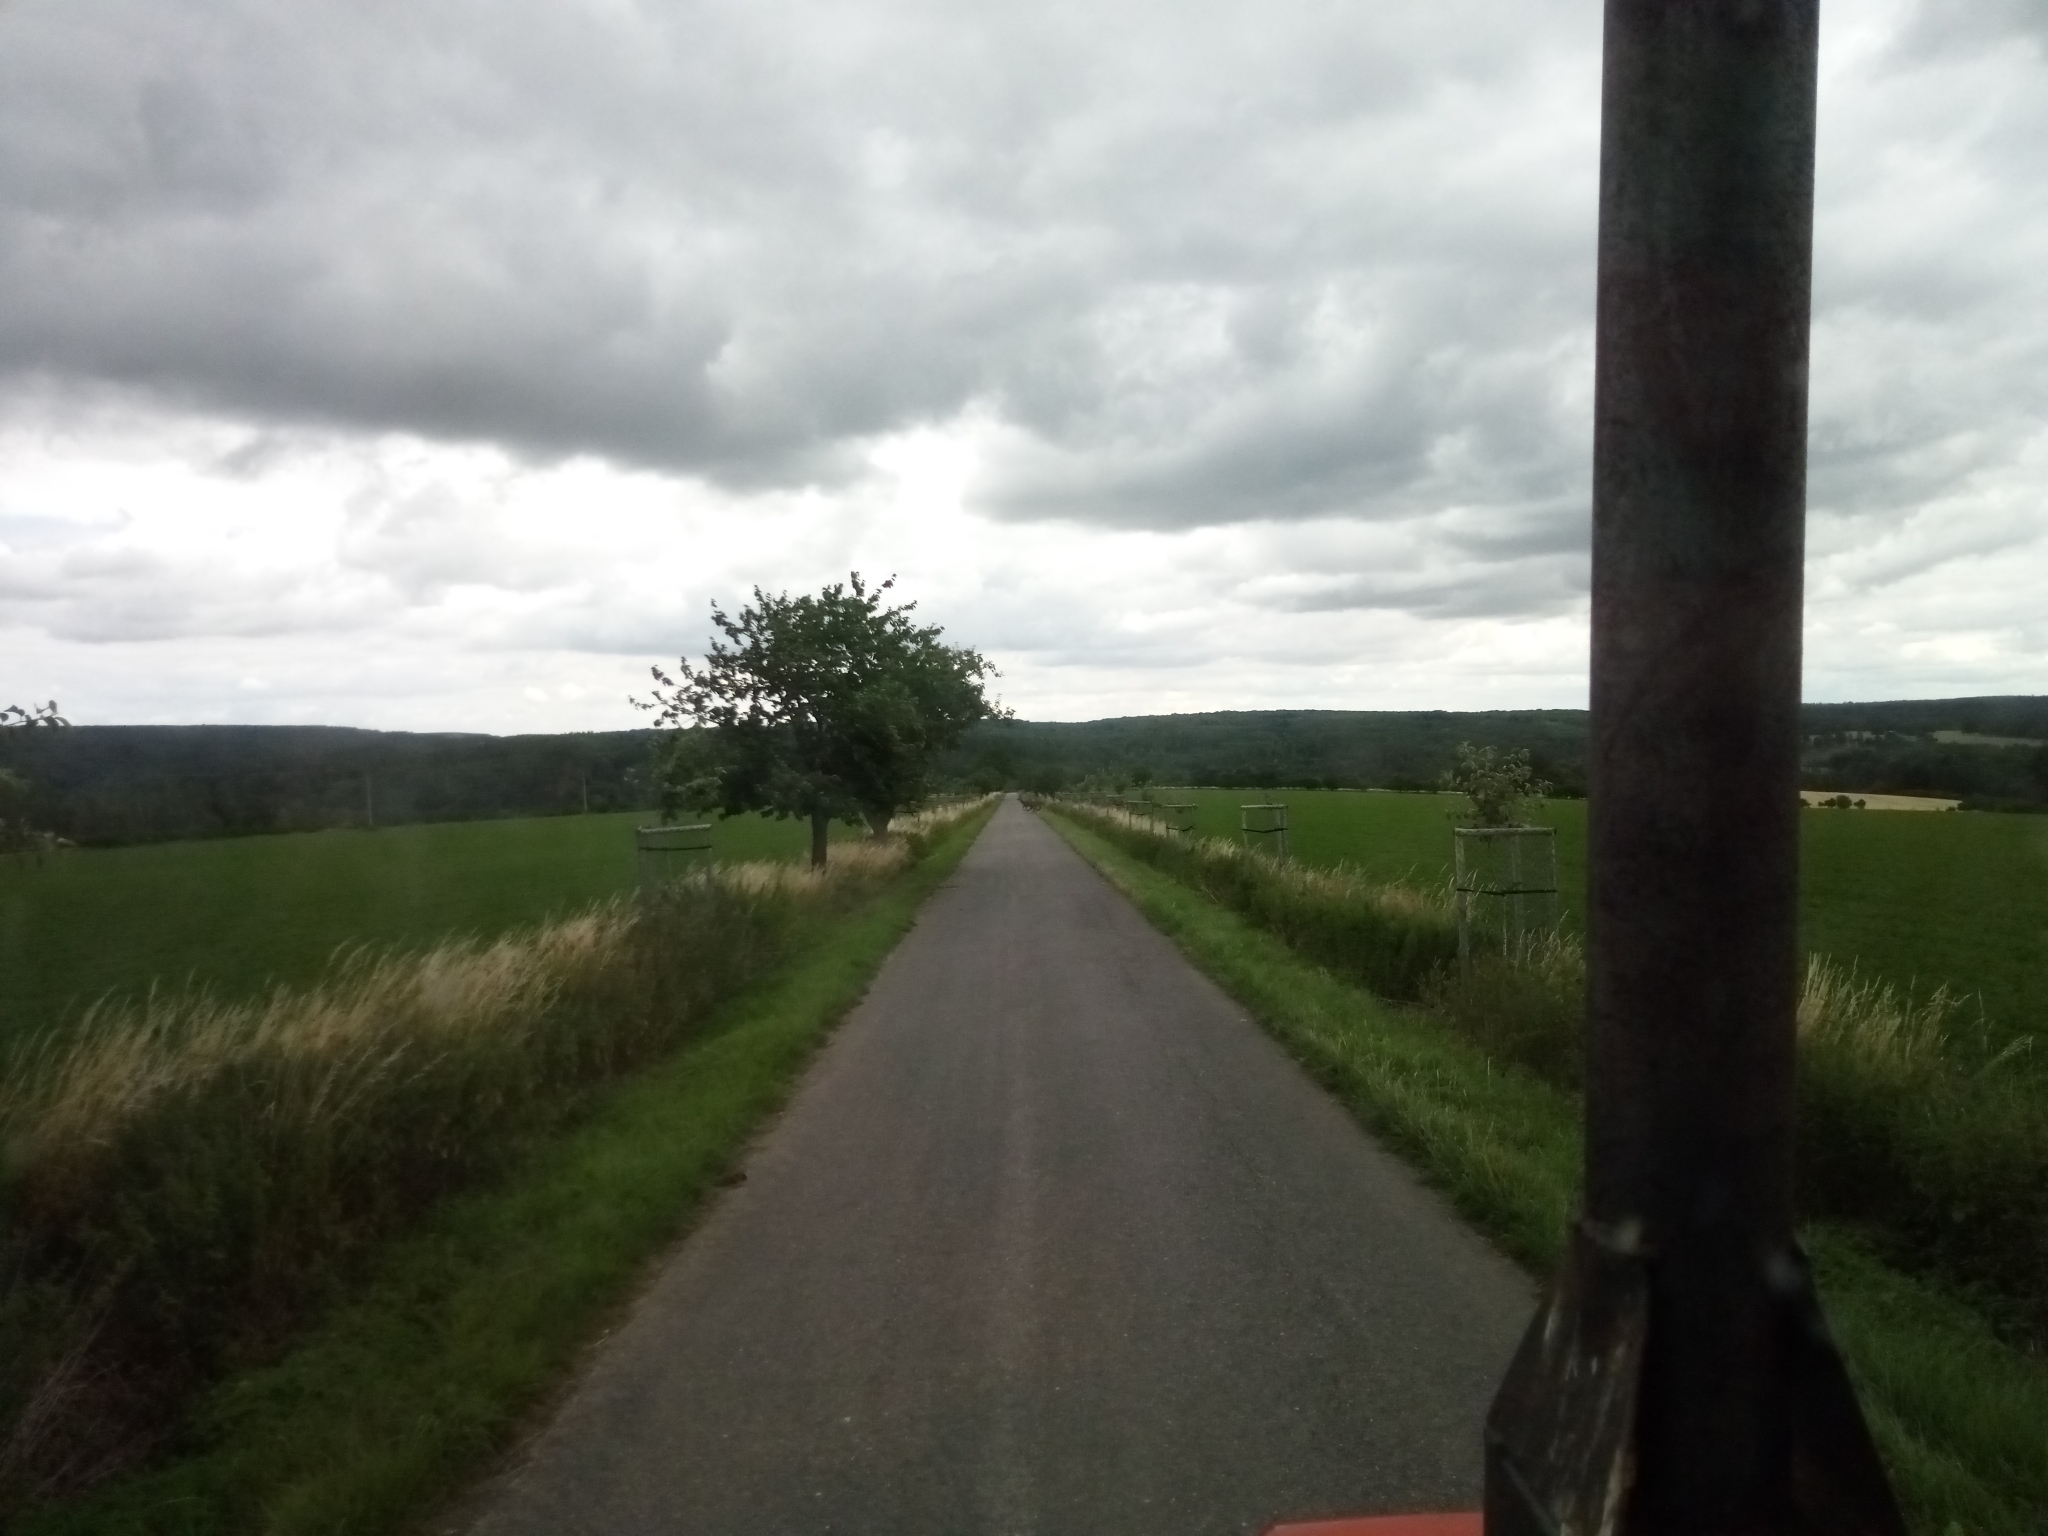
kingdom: Animalia
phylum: Chordata
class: Mammalia
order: Artiodactyla
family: Cervidae
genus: Cervus
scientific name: Cervus elaphus
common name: Red deer
